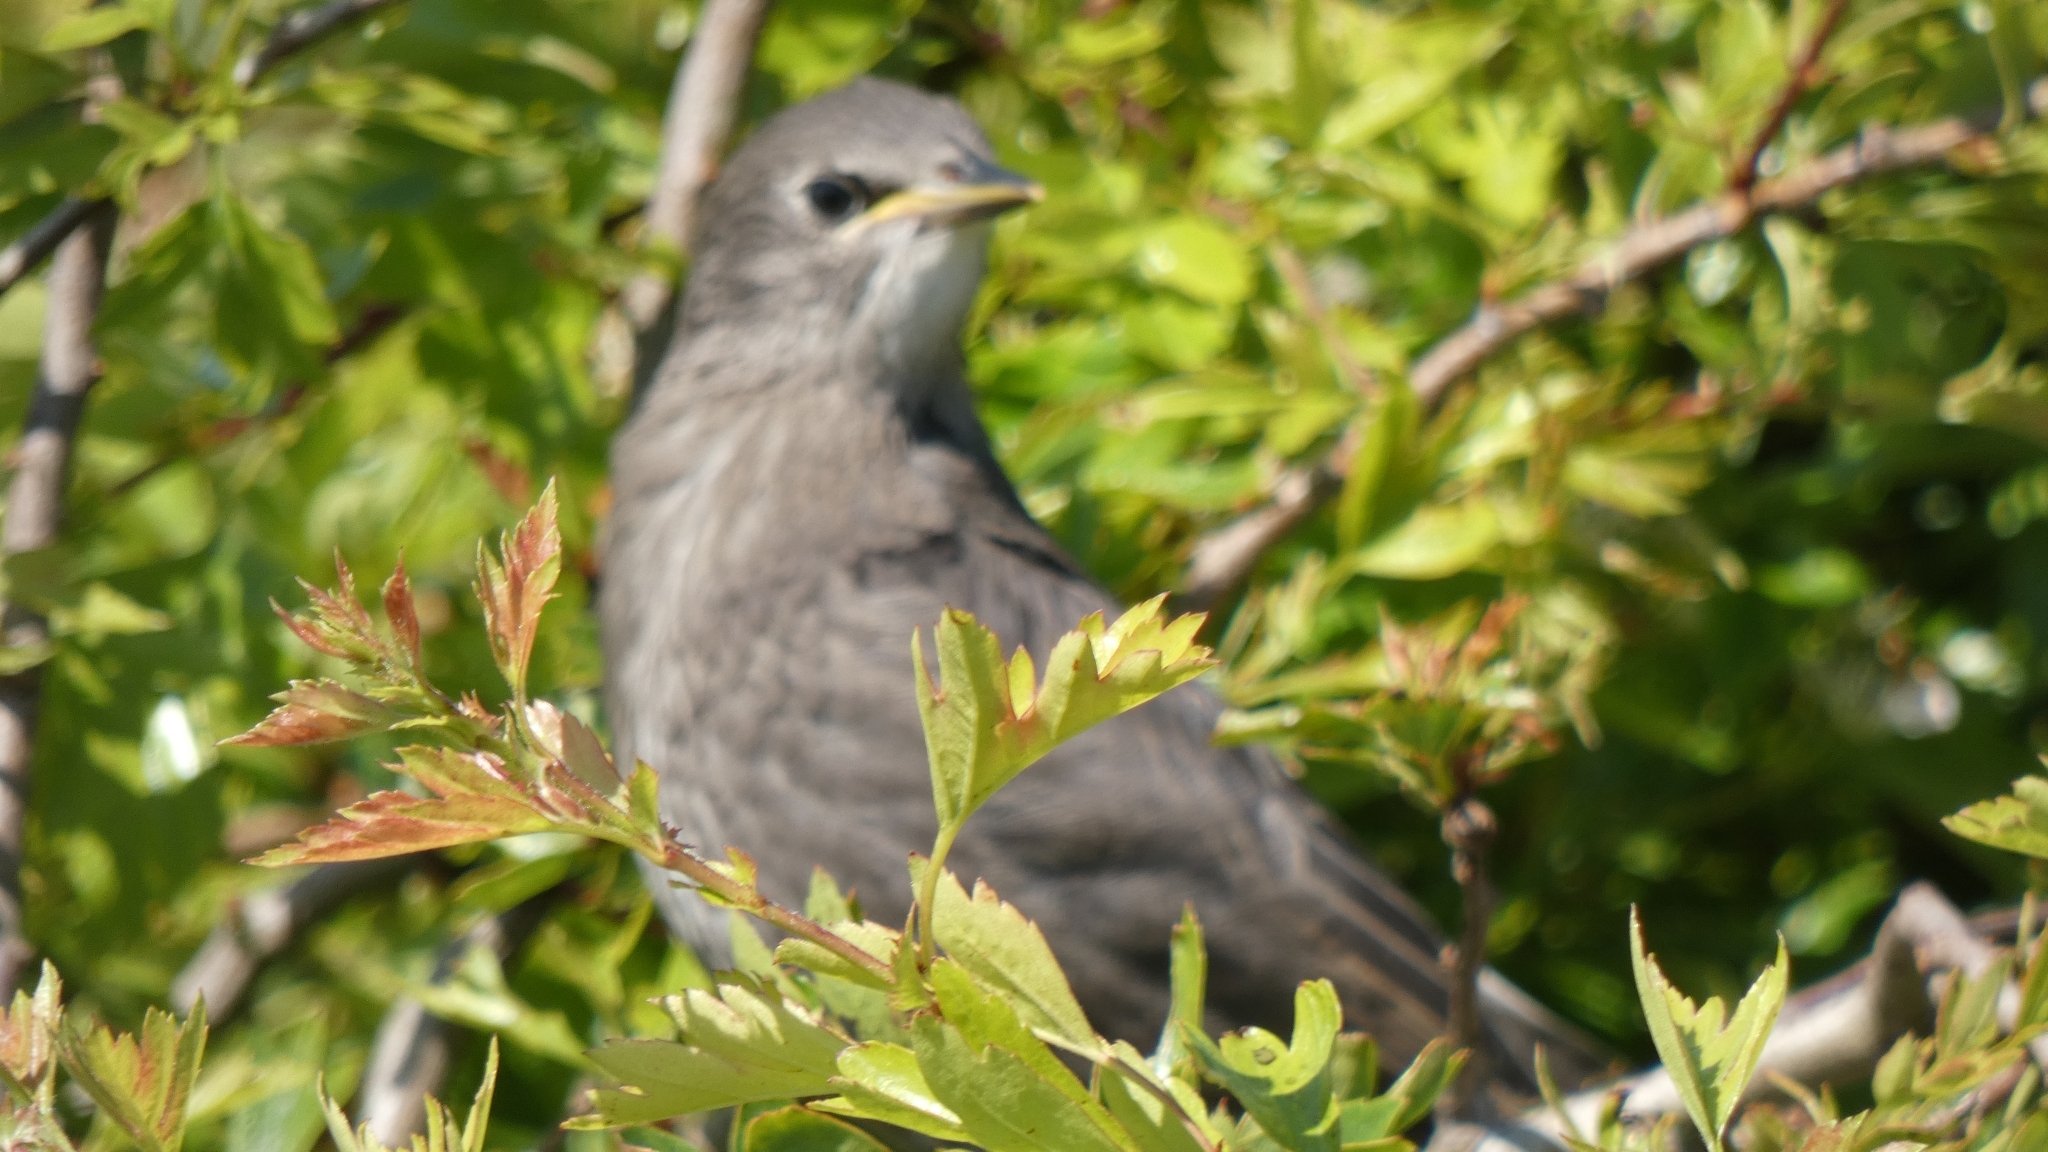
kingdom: Animalia
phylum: Chordata
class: Aves
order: Passeriformes
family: Sturnidae
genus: Sturnus
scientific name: Sturnus vulgaris
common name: Common starling
